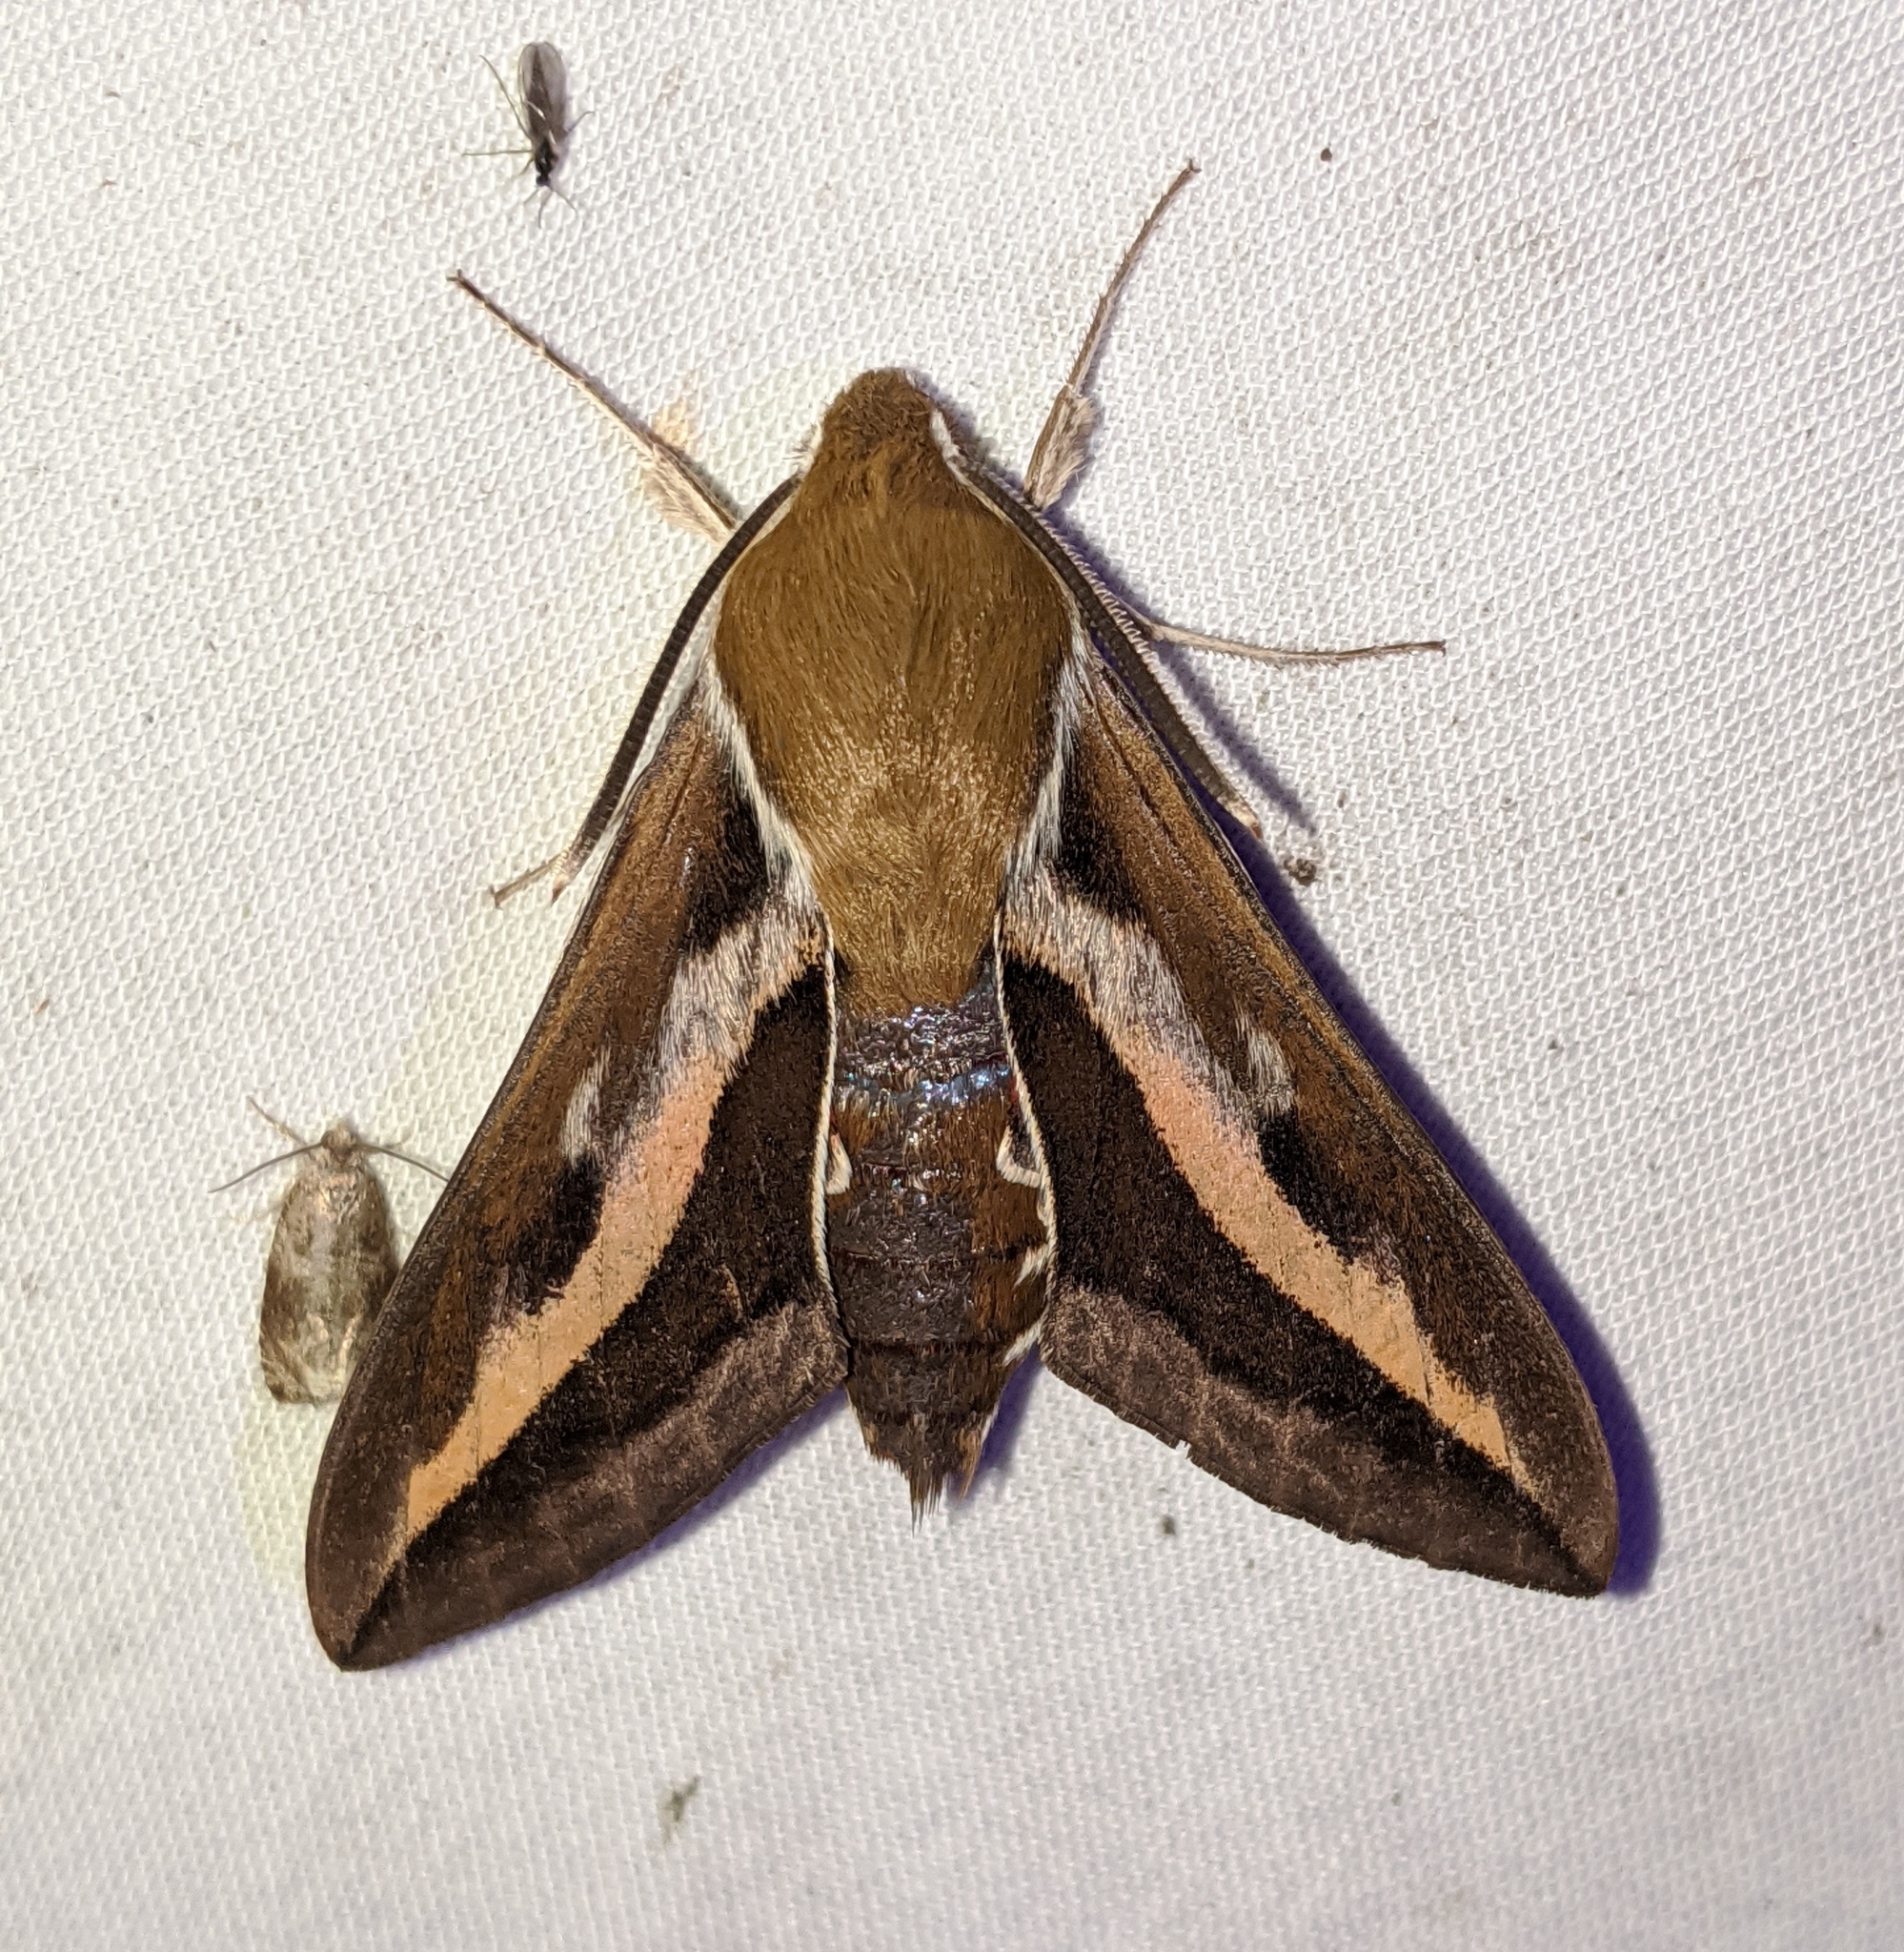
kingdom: Animalia
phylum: Arthropoda
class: Insecta
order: Lepidoptera
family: Sphingidae
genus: Hyles
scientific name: Hyles gallii
